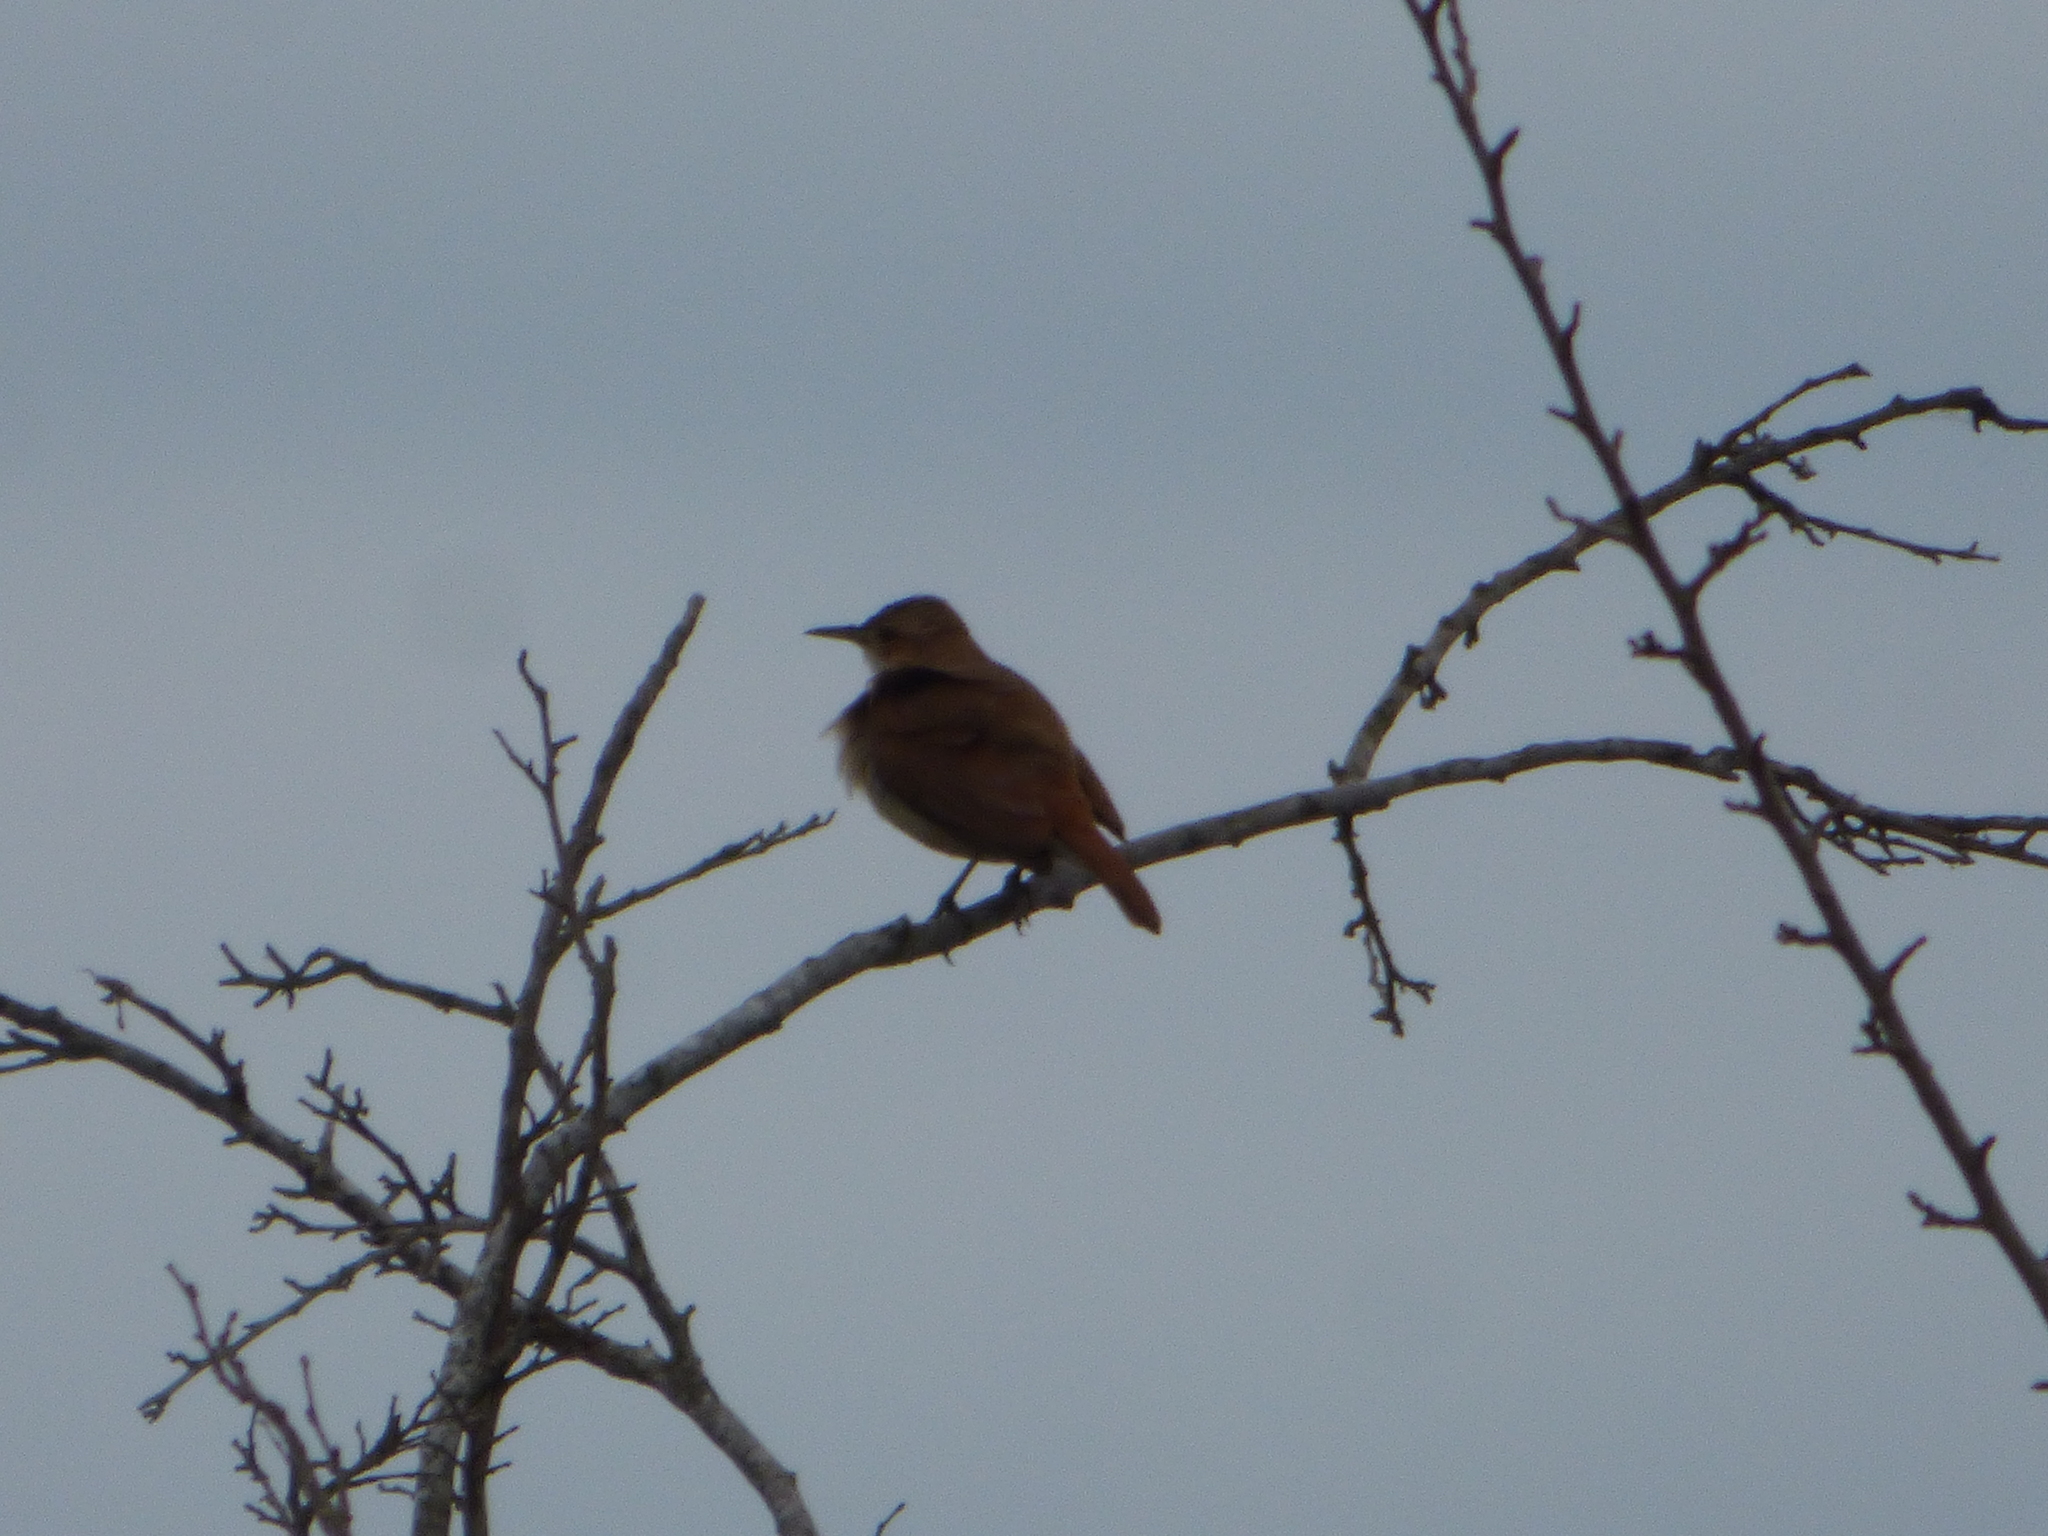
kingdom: Animalia
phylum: Chordata
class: Aves
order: Passeriformes
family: Furnariidae
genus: Furnarius
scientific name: Furnarius rufus
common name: Rufous hornero
